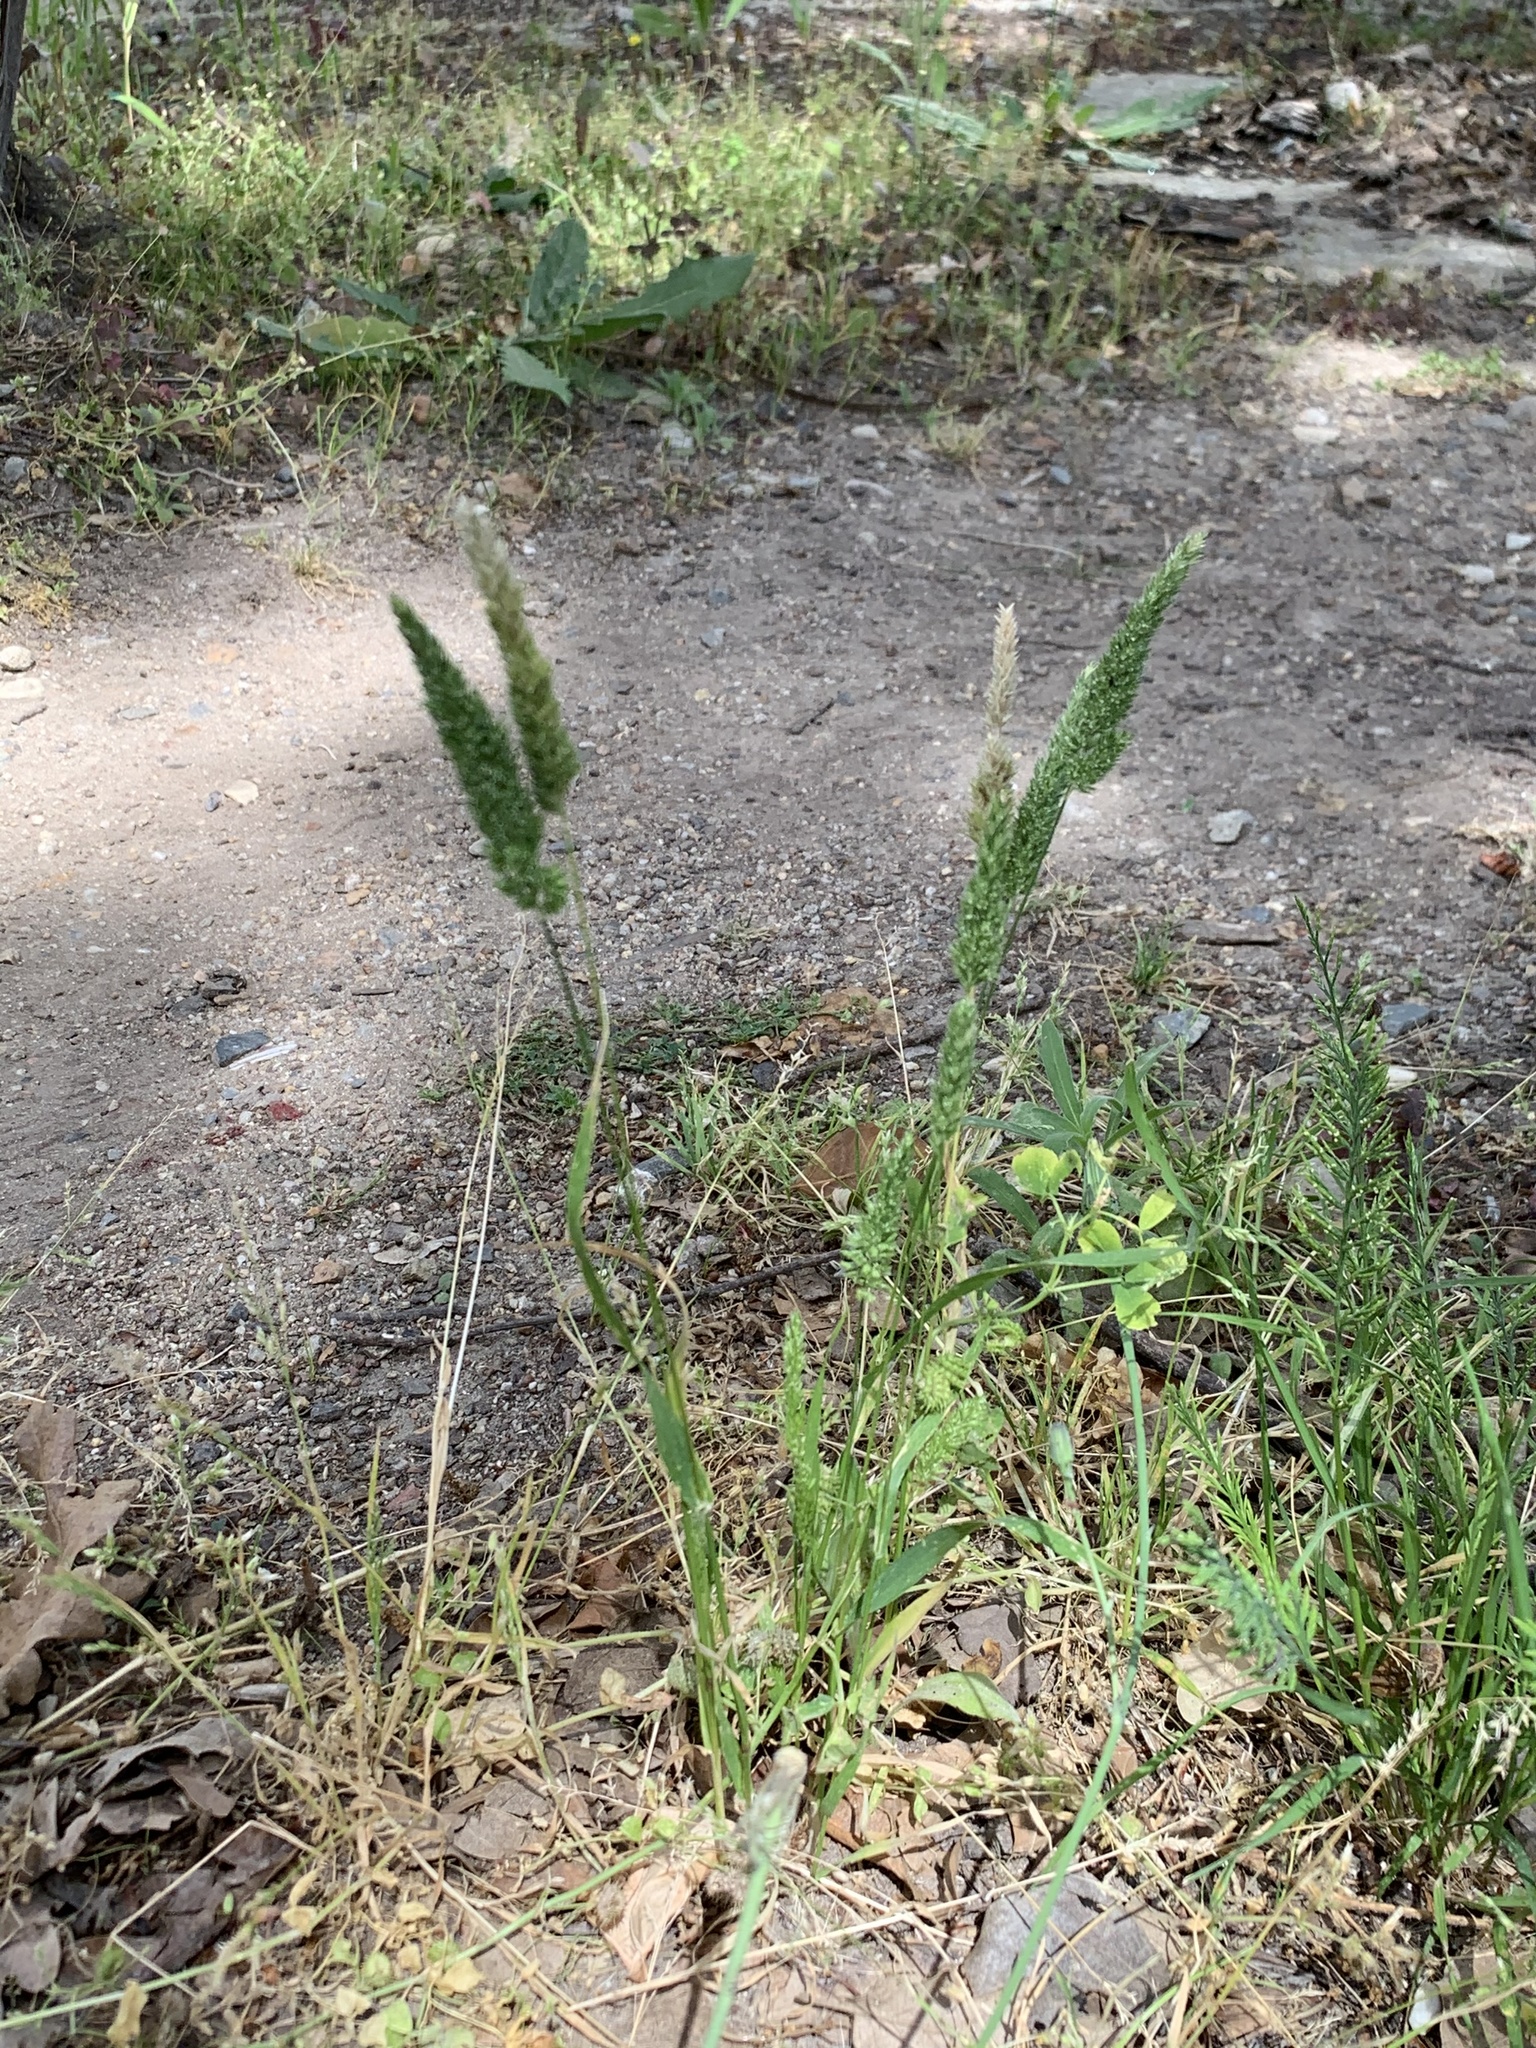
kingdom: Plantae
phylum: Tracheophyta
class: Liliopsida
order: Poales
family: Poaceae
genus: Rostraria
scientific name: Rostraria cristata
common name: Mediterranean hair-grass
